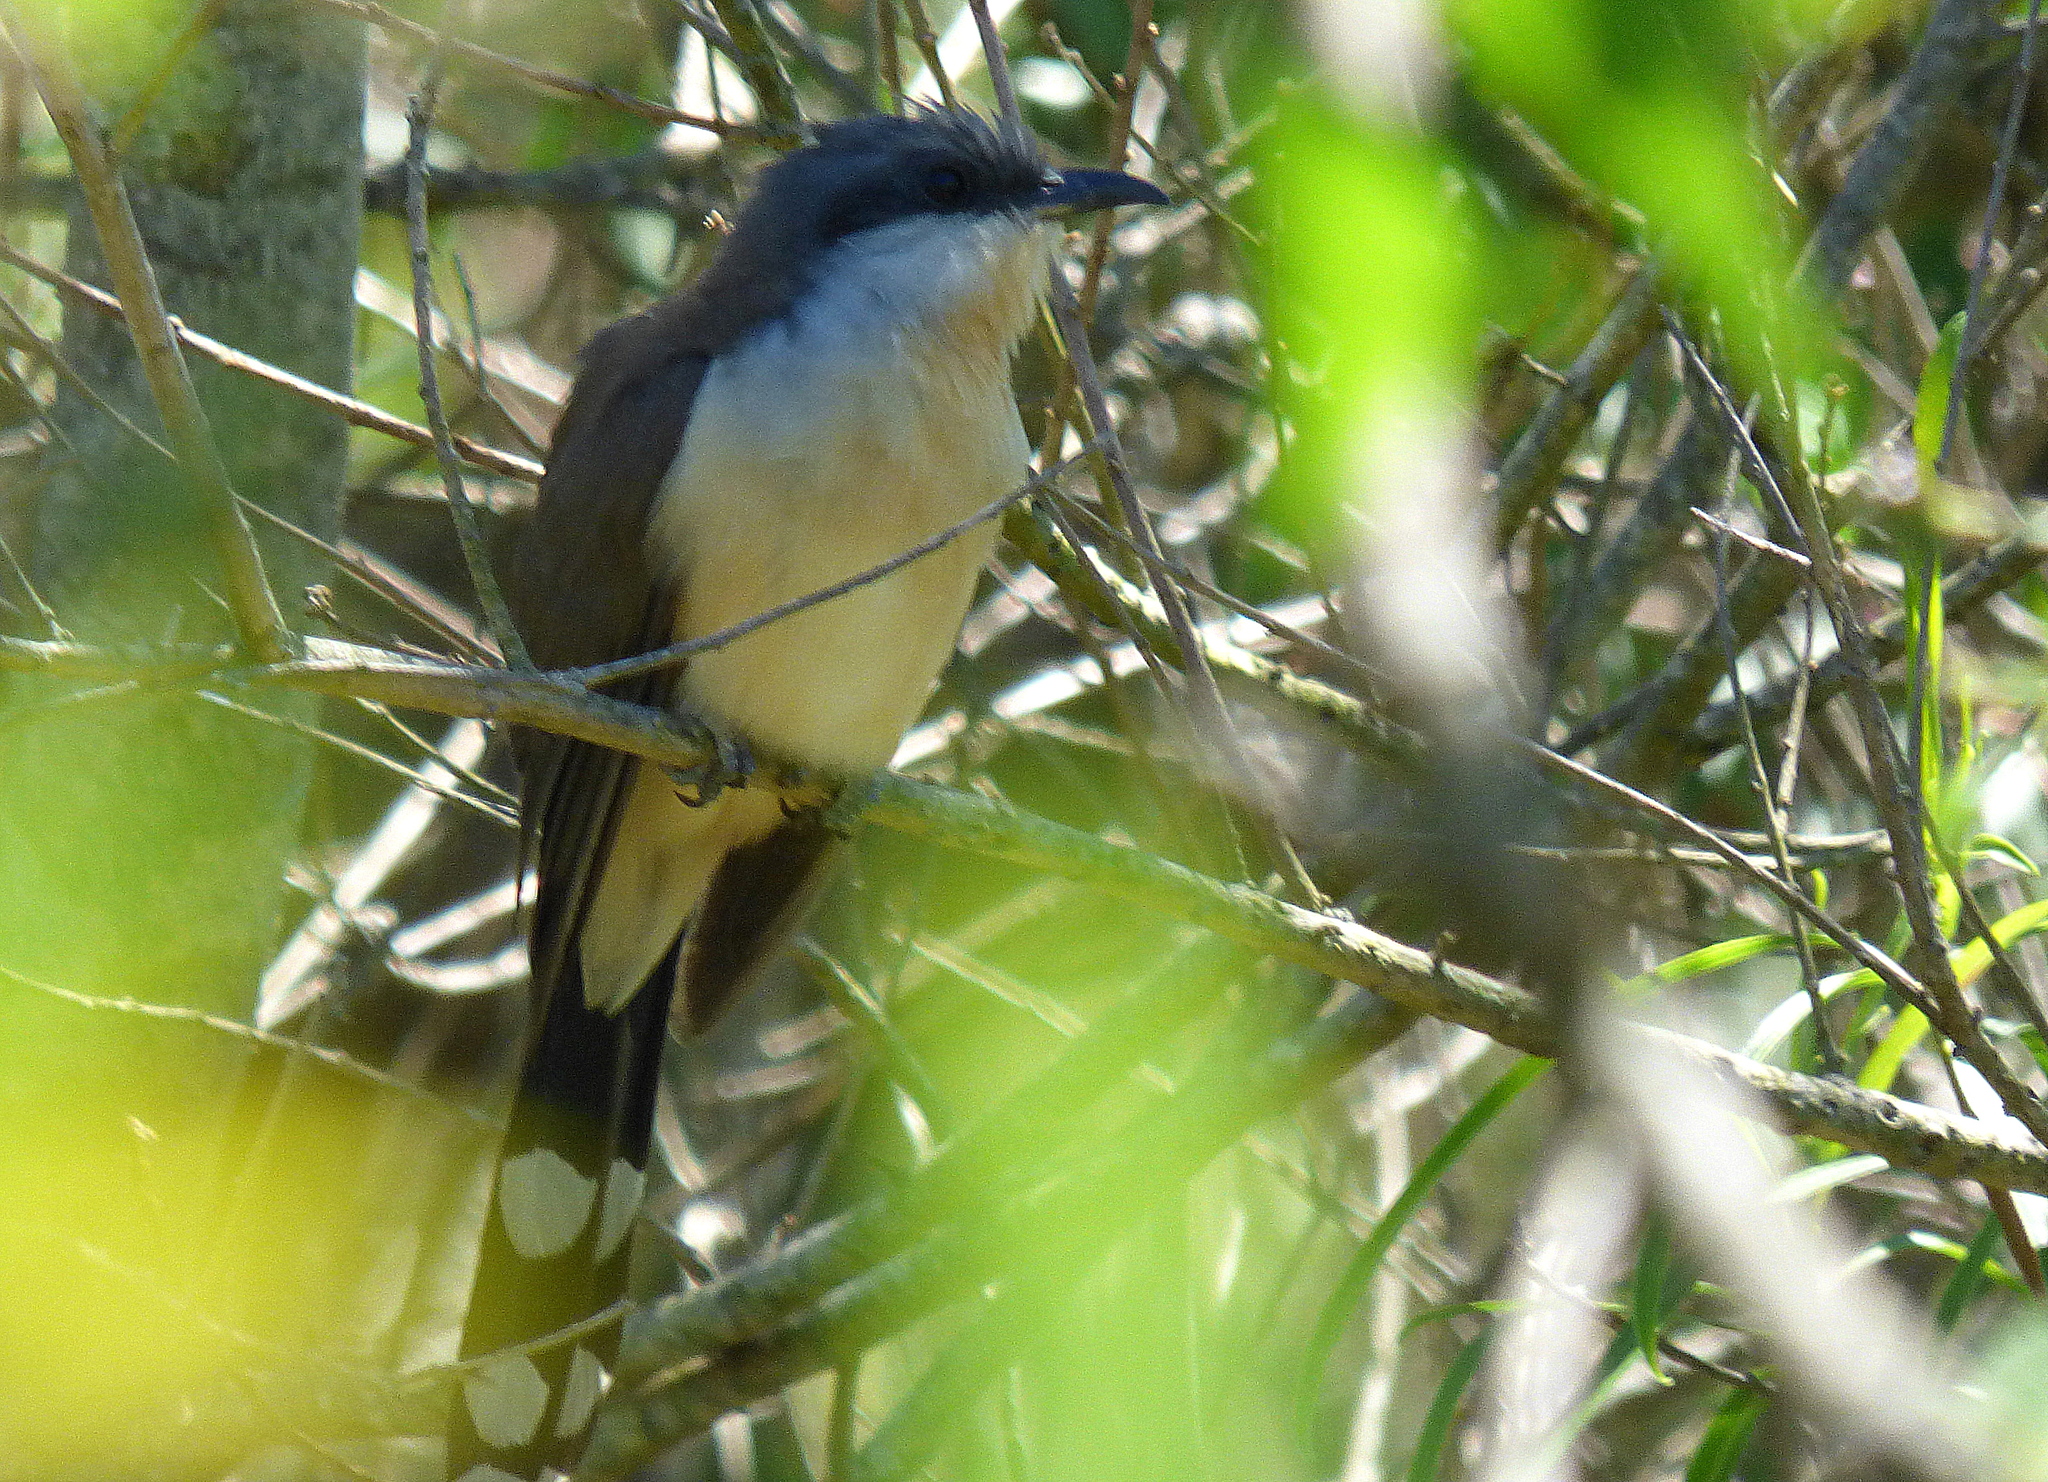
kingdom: Animalia
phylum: Chordata
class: Aves
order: Cuculiformes
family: Cuculidae
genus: Coccyzus
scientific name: Coccyzus melacoryphus
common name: Dark-billed cuckoo
